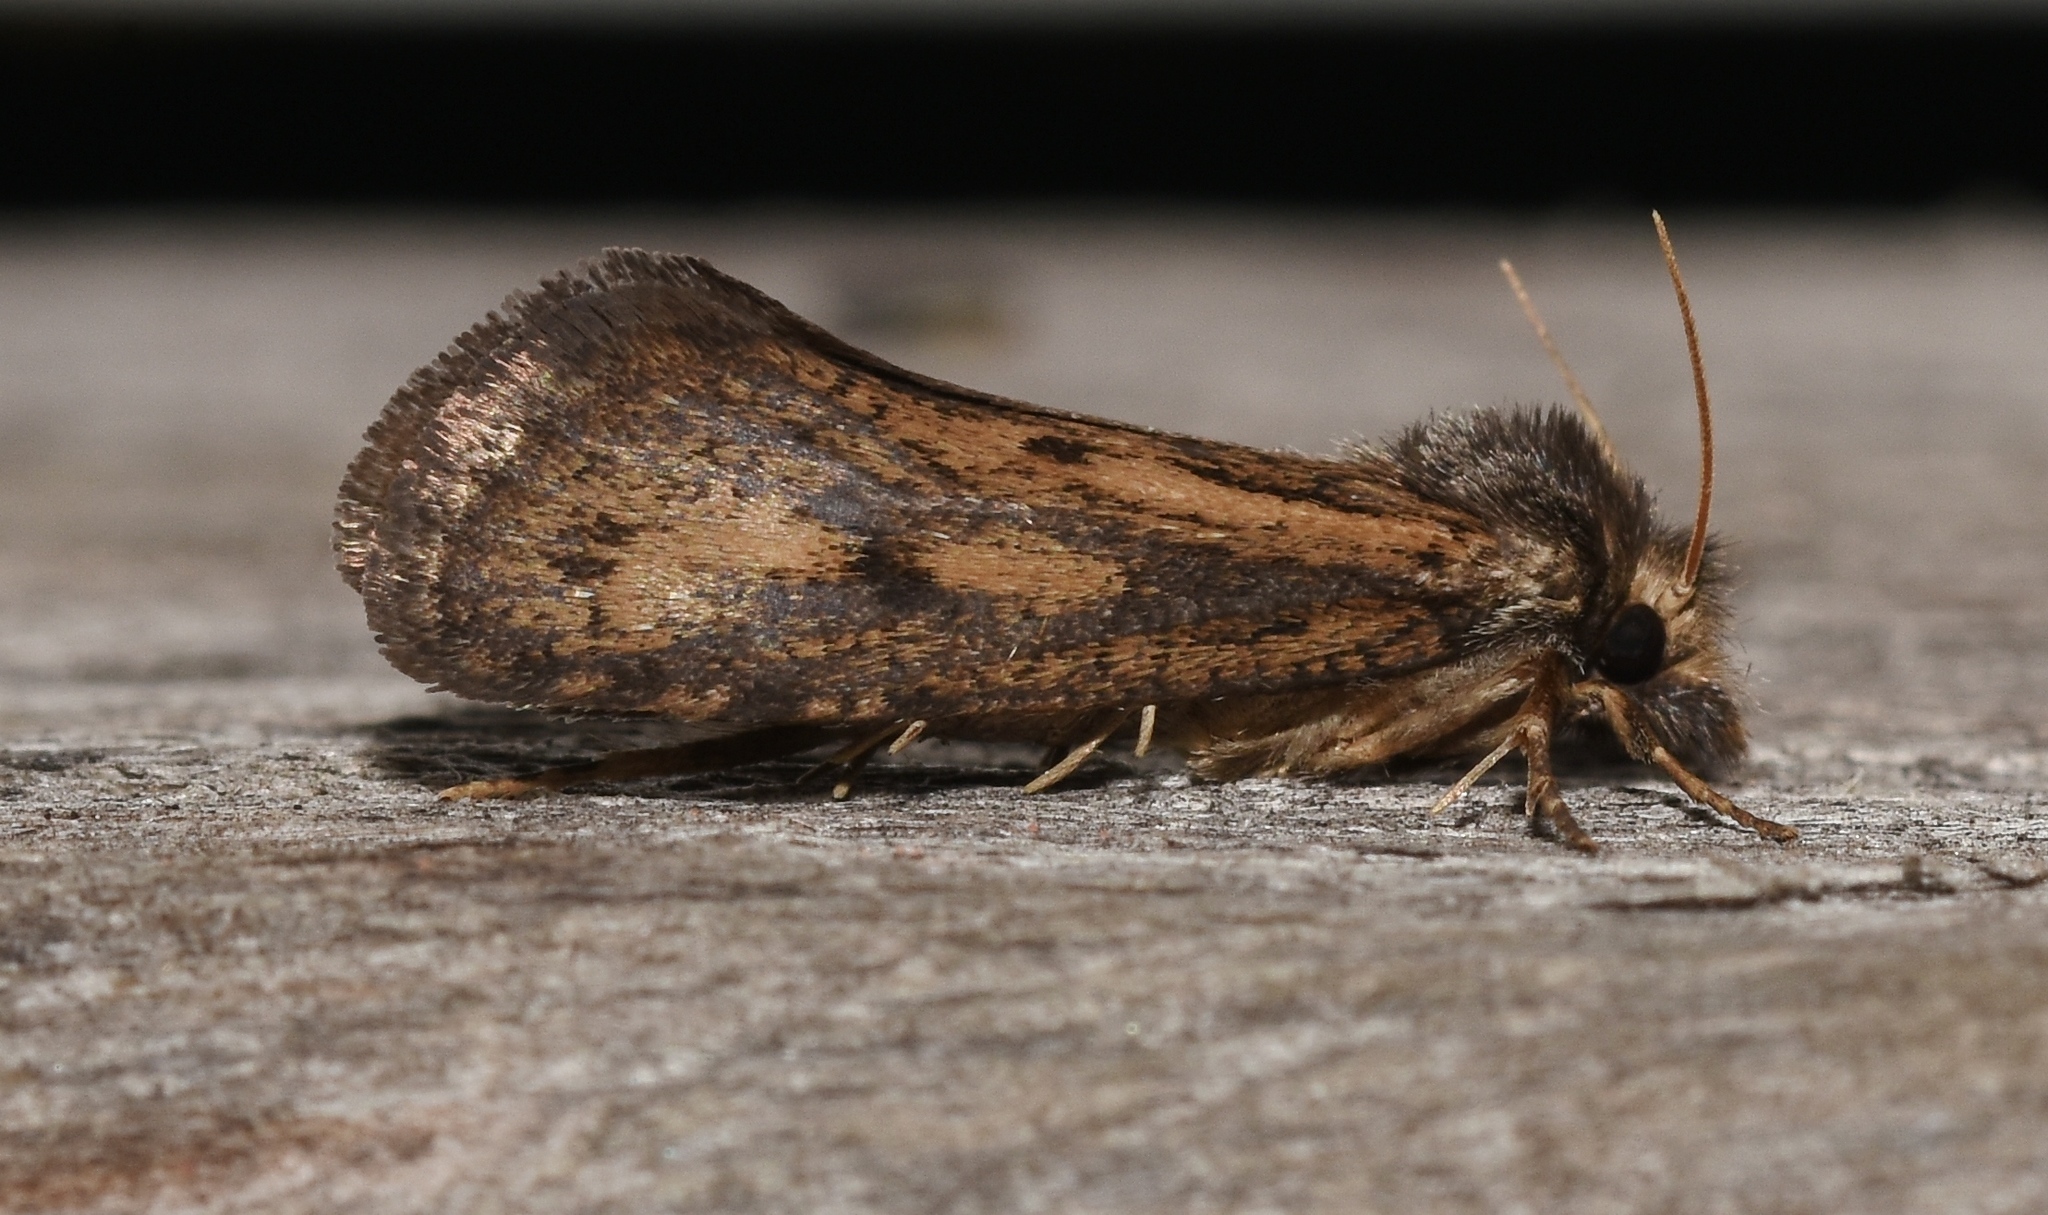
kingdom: Animalia
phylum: Arthropoda
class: Insecta
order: Lepidoptera
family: Tineidae
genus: Acrolophus
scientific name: Acrolophus popeanella
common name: Clemens' grass tubeworm moth
